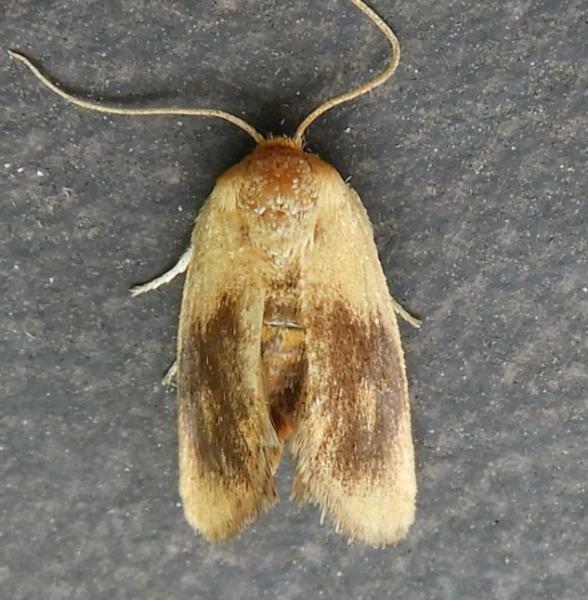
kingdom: Animalia
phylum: Arthropoda
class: Insecta
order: Lepidoptera
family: Limacodidae
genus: Tortricidia
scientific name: Tortricidia flexuosa
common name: Abbreviated button slug moth
